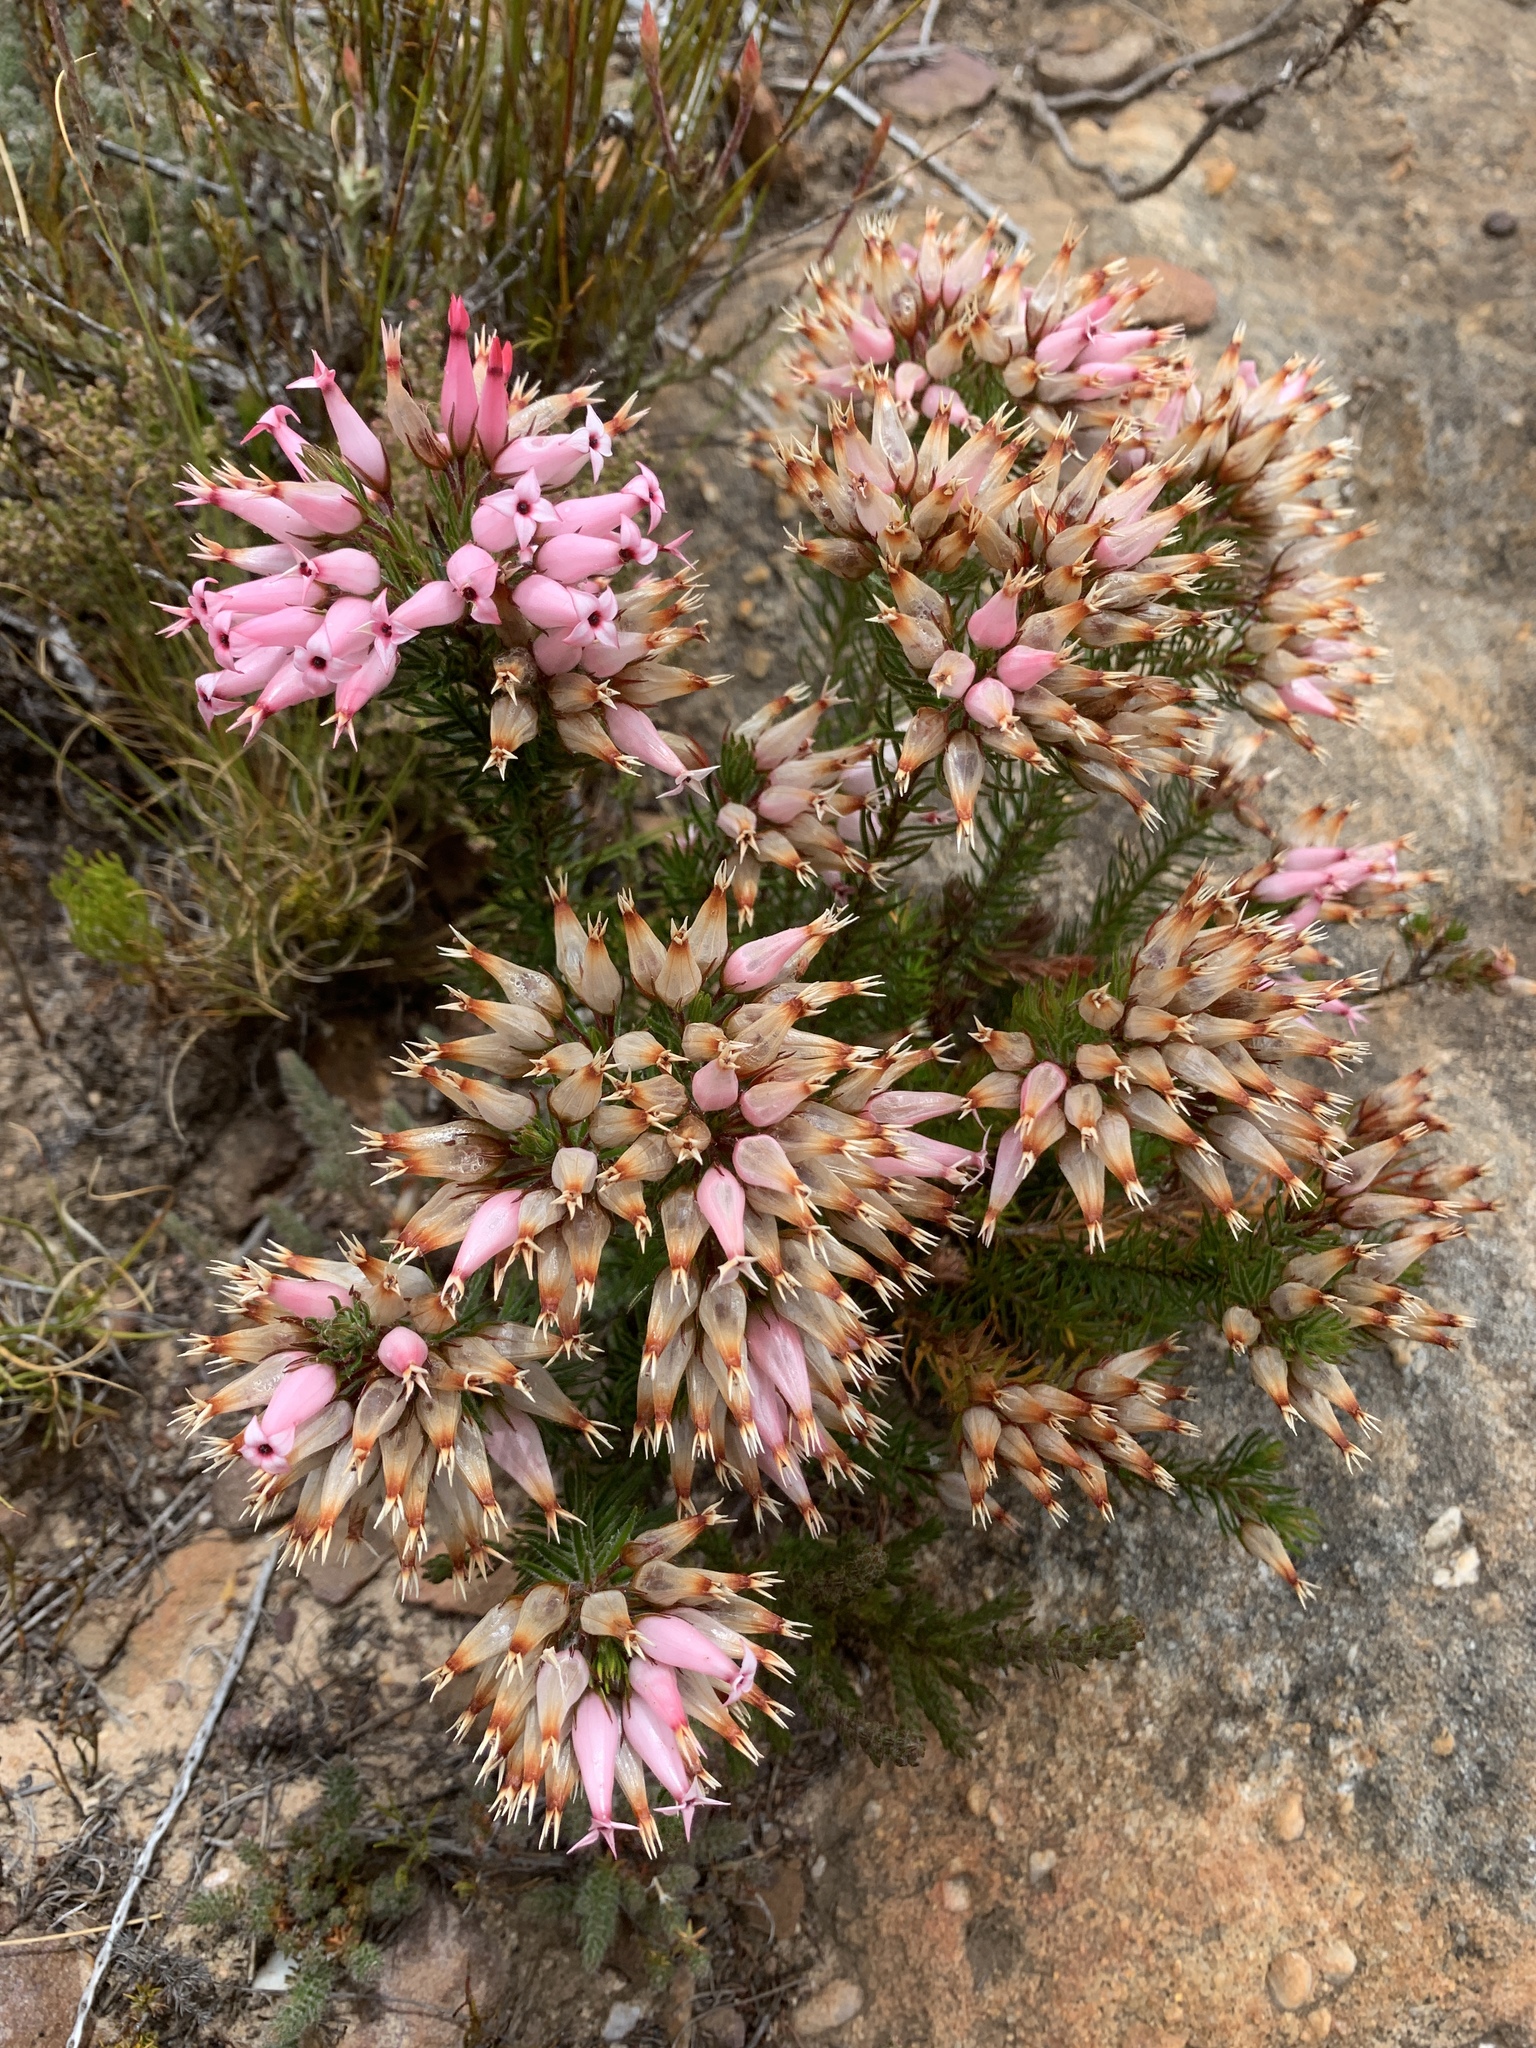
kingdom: Plantae
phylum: Tracheophyta
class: Magnoliopsida
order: Ericales
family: Ericaceae
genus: Erica
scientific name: Erica ventricosa
